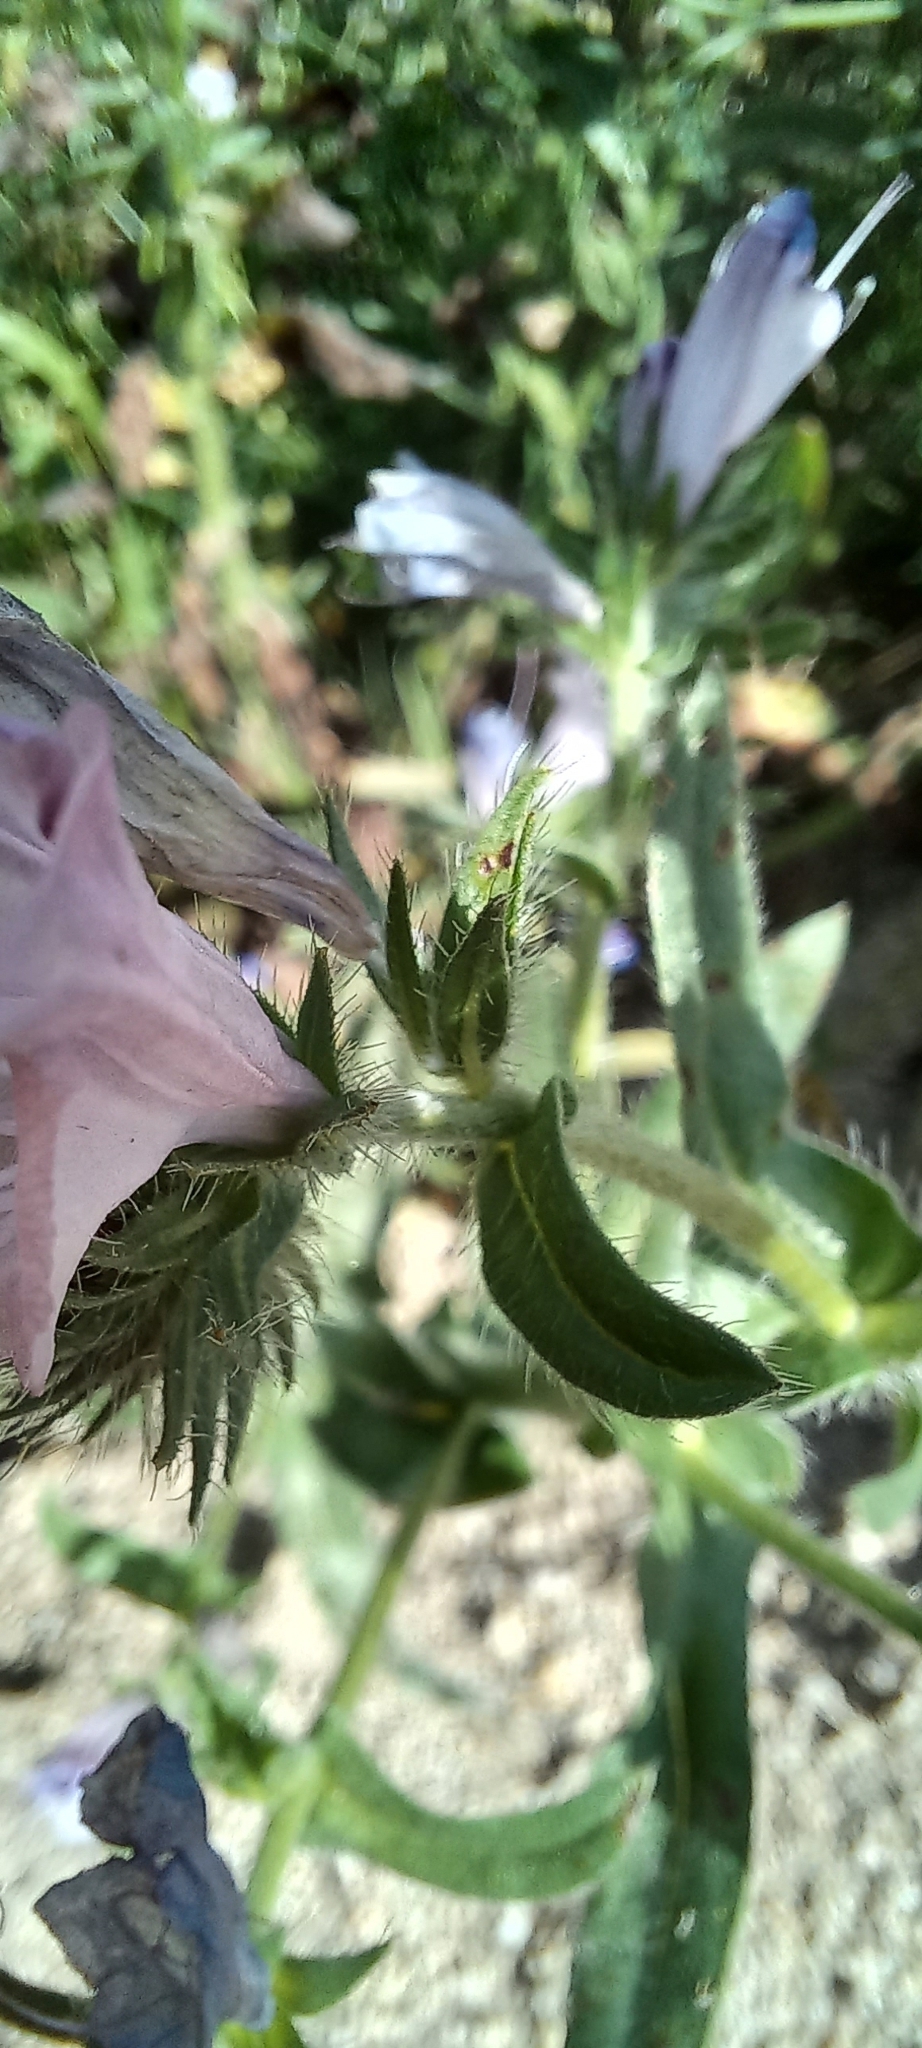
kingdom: Plantae
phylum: Tracheophyta
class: Magnoliopsida
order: Boraginales
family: Boraginaceae
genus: Echium
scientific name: Echium plantagineum
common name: Purple viper's-bugloss
